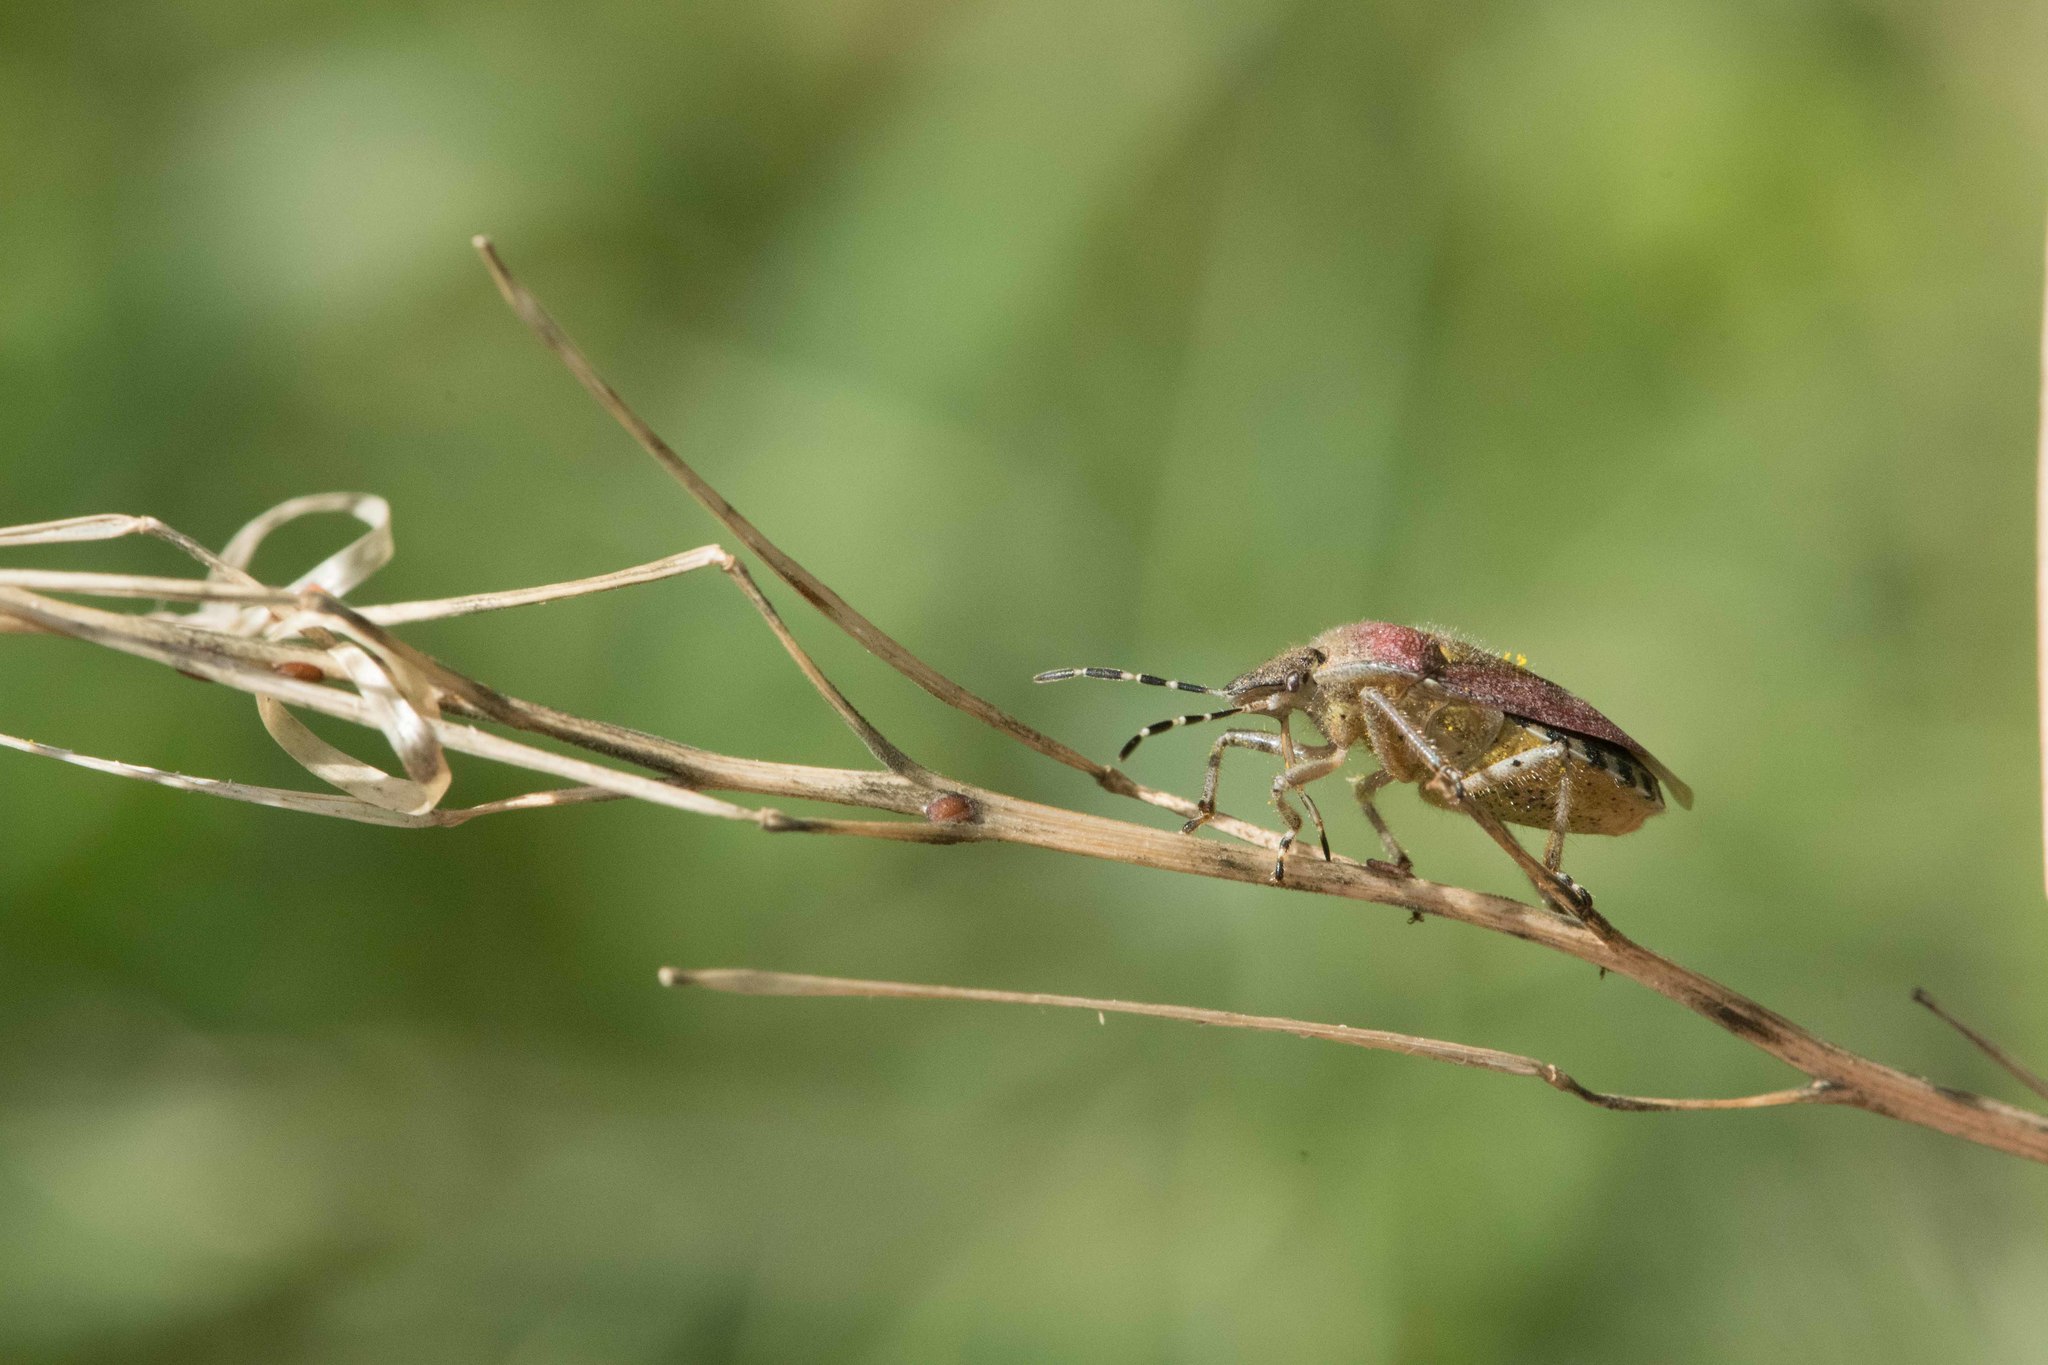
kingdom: Animalia
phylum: Arthropoda
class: Insecta
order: Hemiptera
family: Pentatomidae
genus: Dolycoris
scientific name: Dolycoris baccarum
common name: Sloe bug
